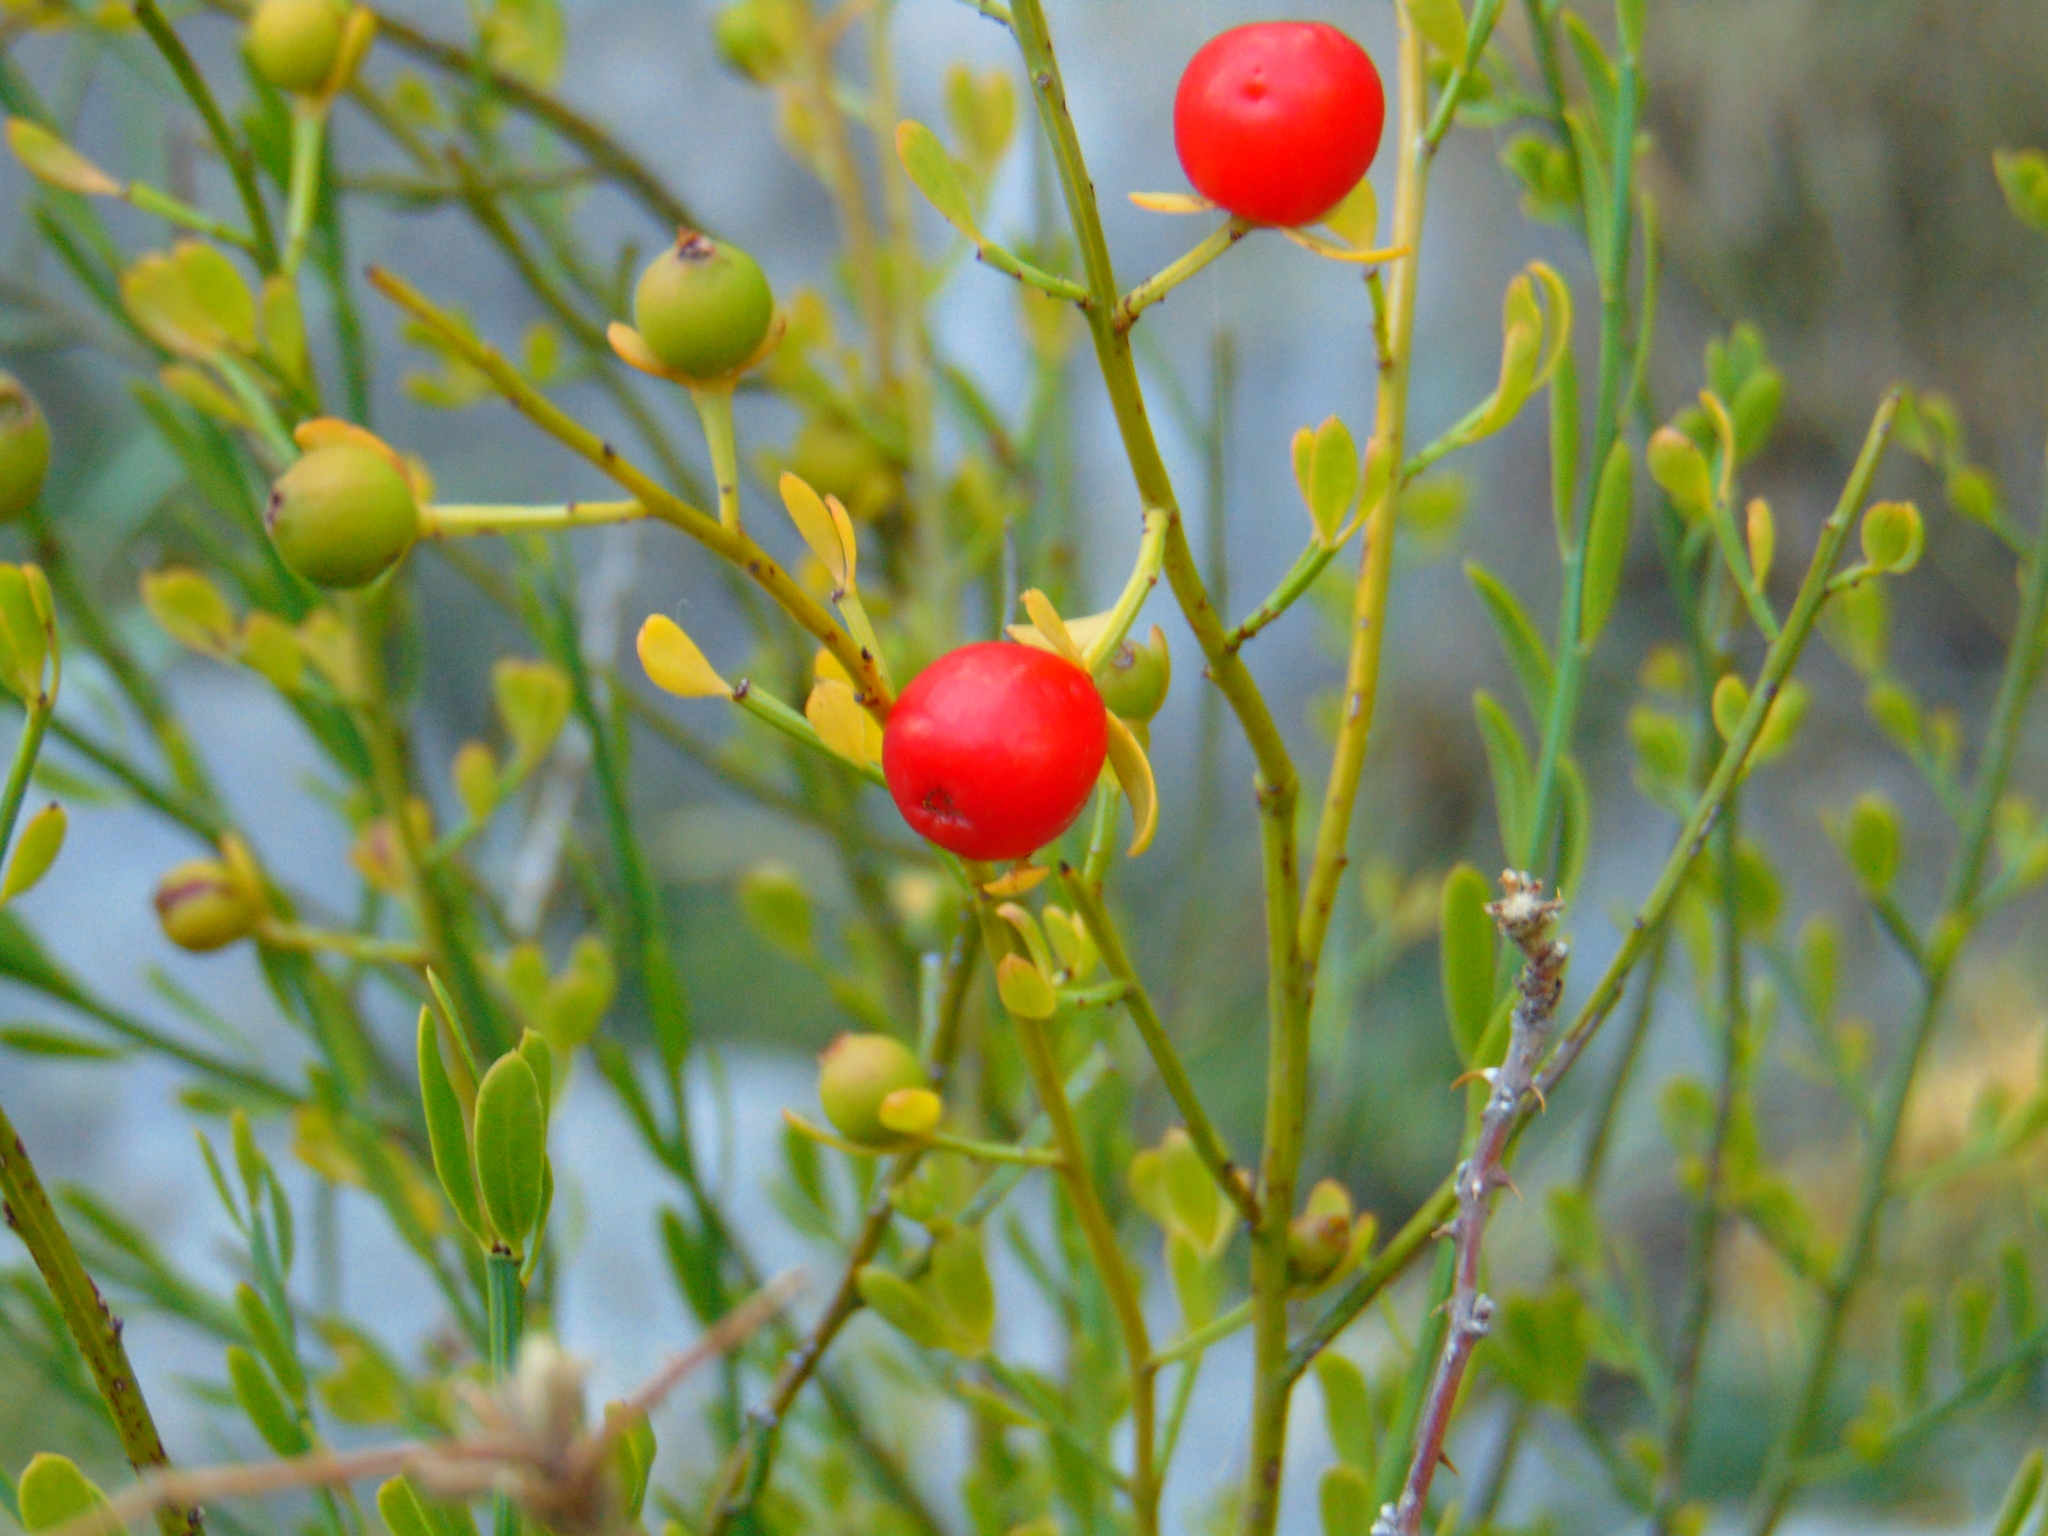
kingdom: Plantae
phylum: Tracheophyta
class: Magnoliopsida
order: Santalales
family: Santalaceae
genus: Osyris
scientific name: Osyris alba
